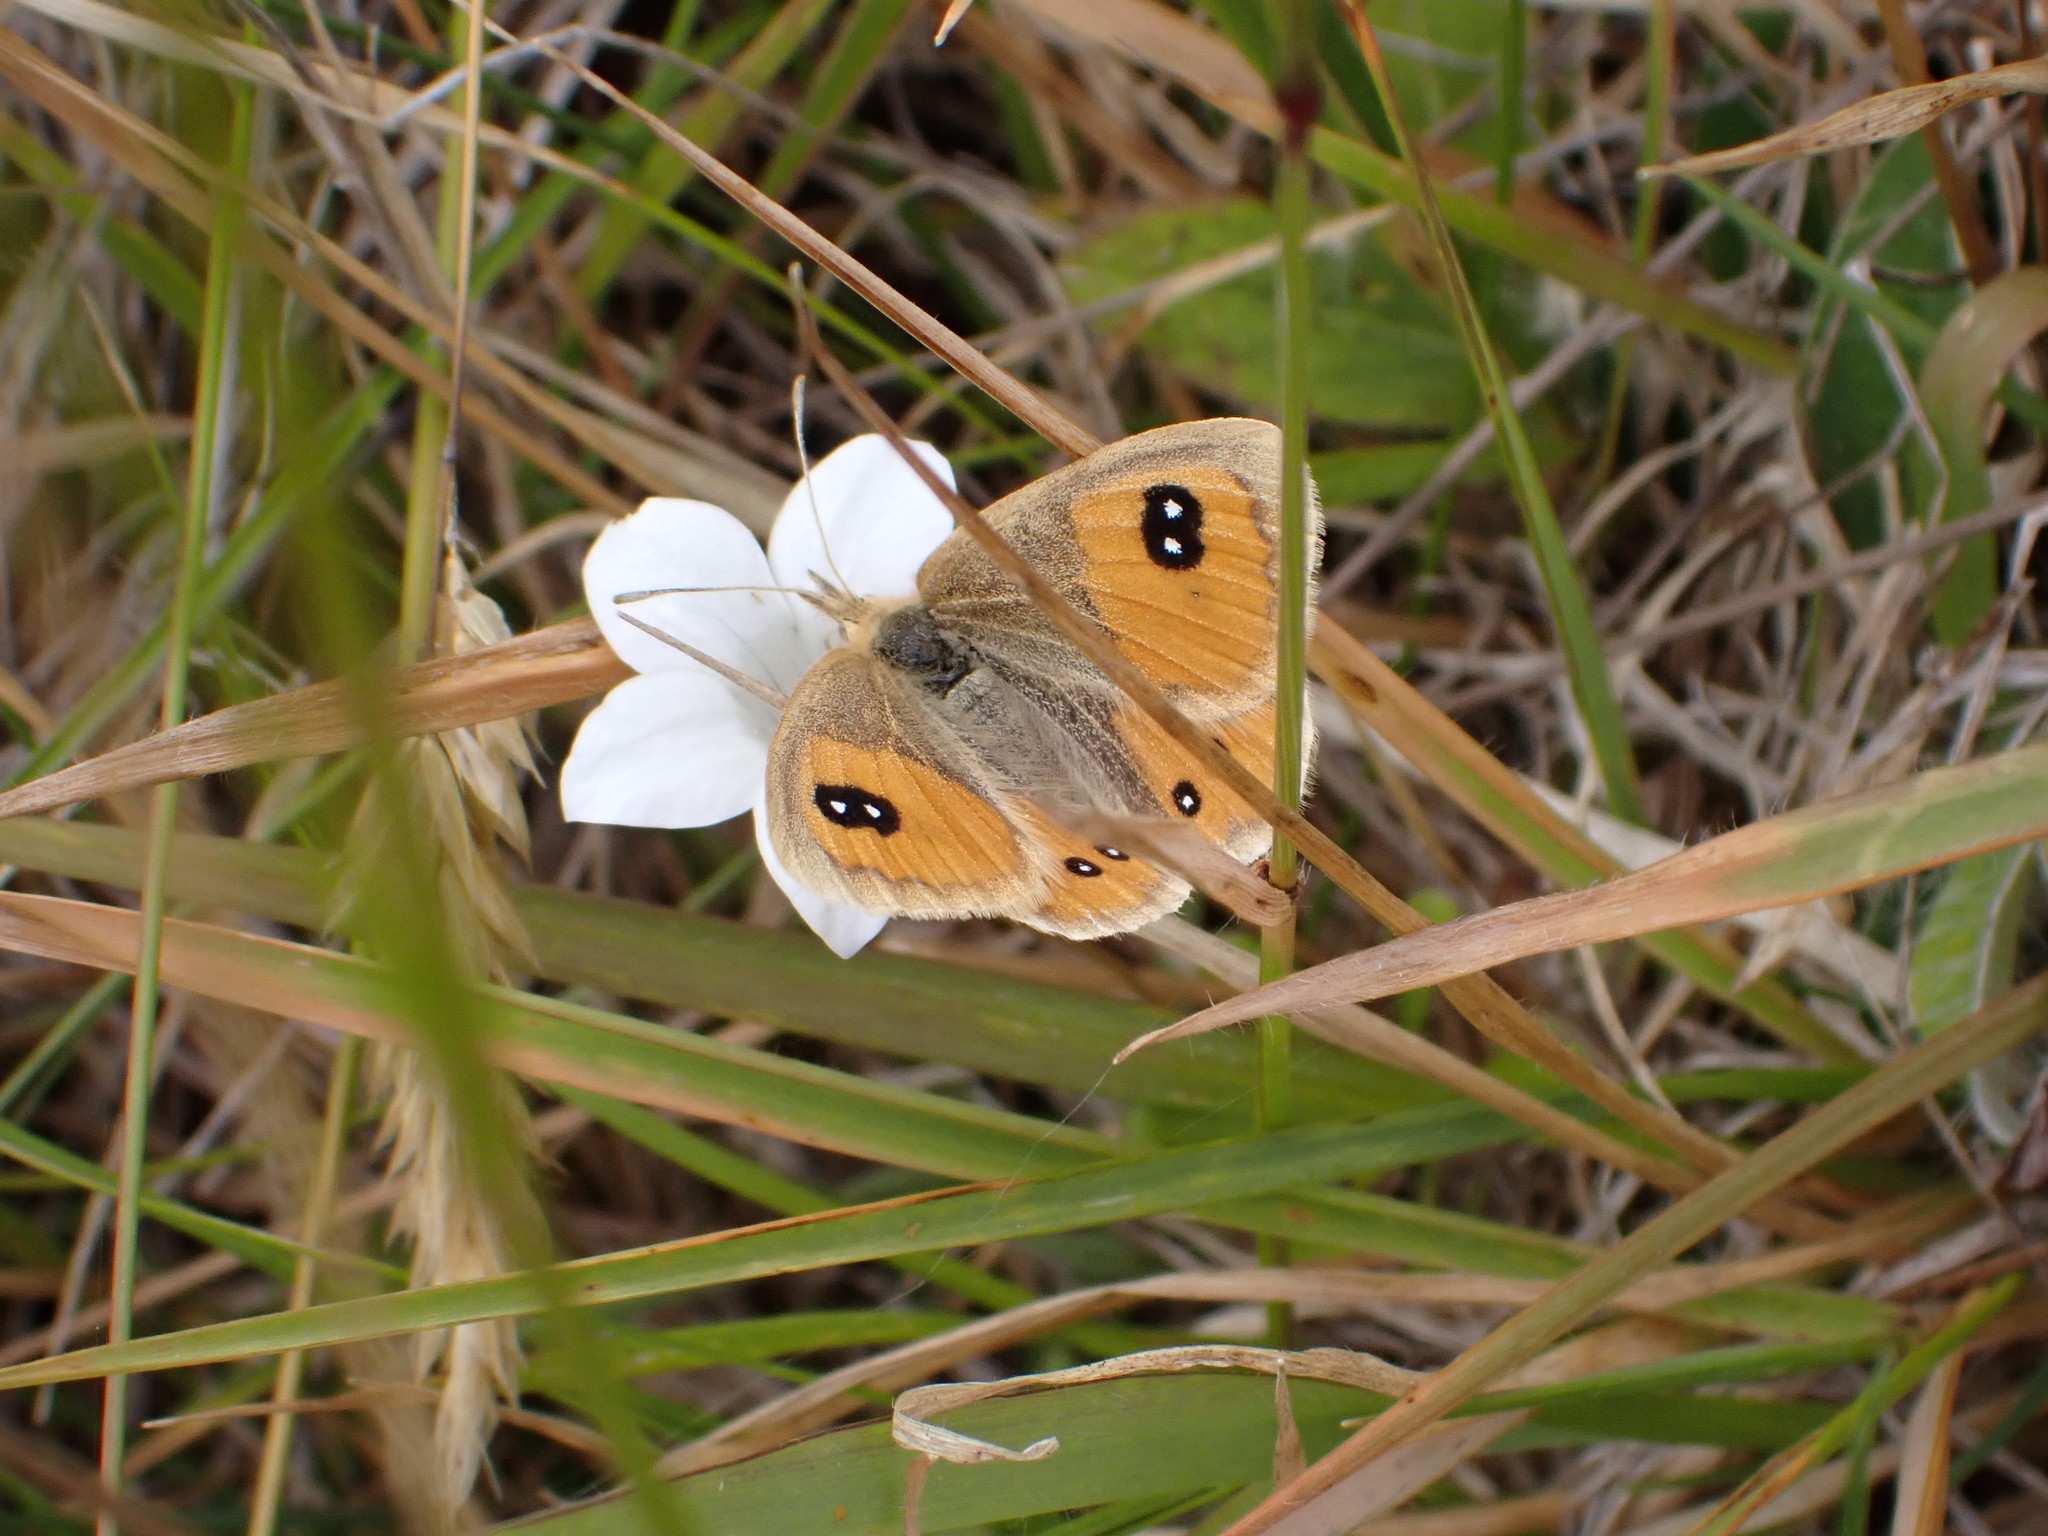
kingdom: Animalia
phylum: Arthropoda
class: Insecta
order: Lepidoptera
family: Nymphalidae
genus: Argyrophenga
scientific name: Argyrophenga antipodum
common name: Common tussock butterfly
